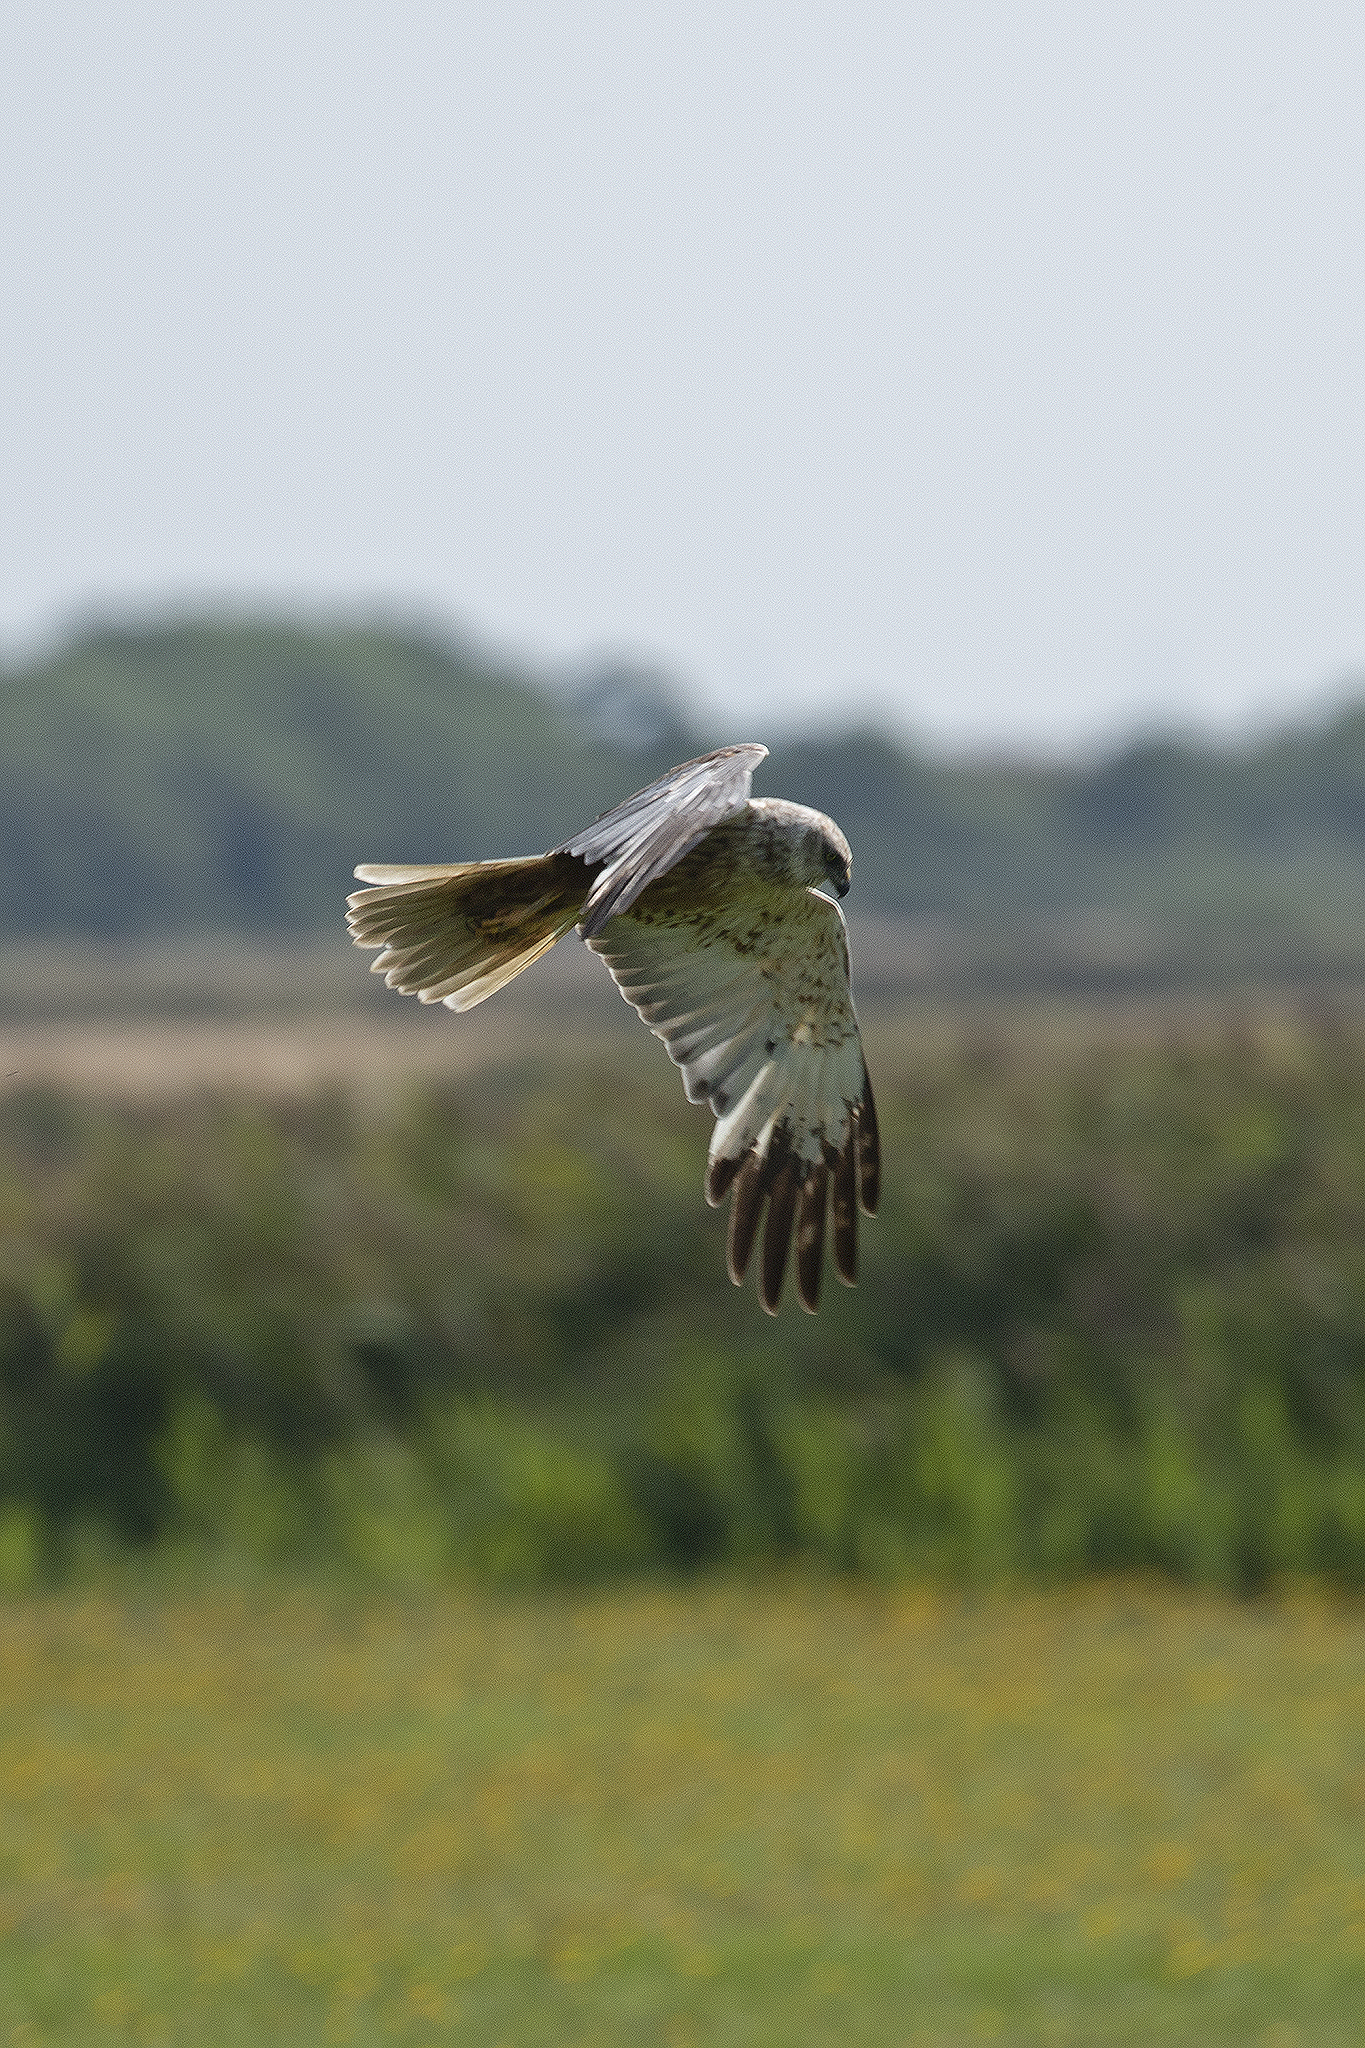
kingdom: Animalia
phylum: Chordata
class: Aves
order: Accipitriformes
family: Accipitridae
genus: Circus
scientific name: Circus aeruginosus
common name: Western marsh harrier
